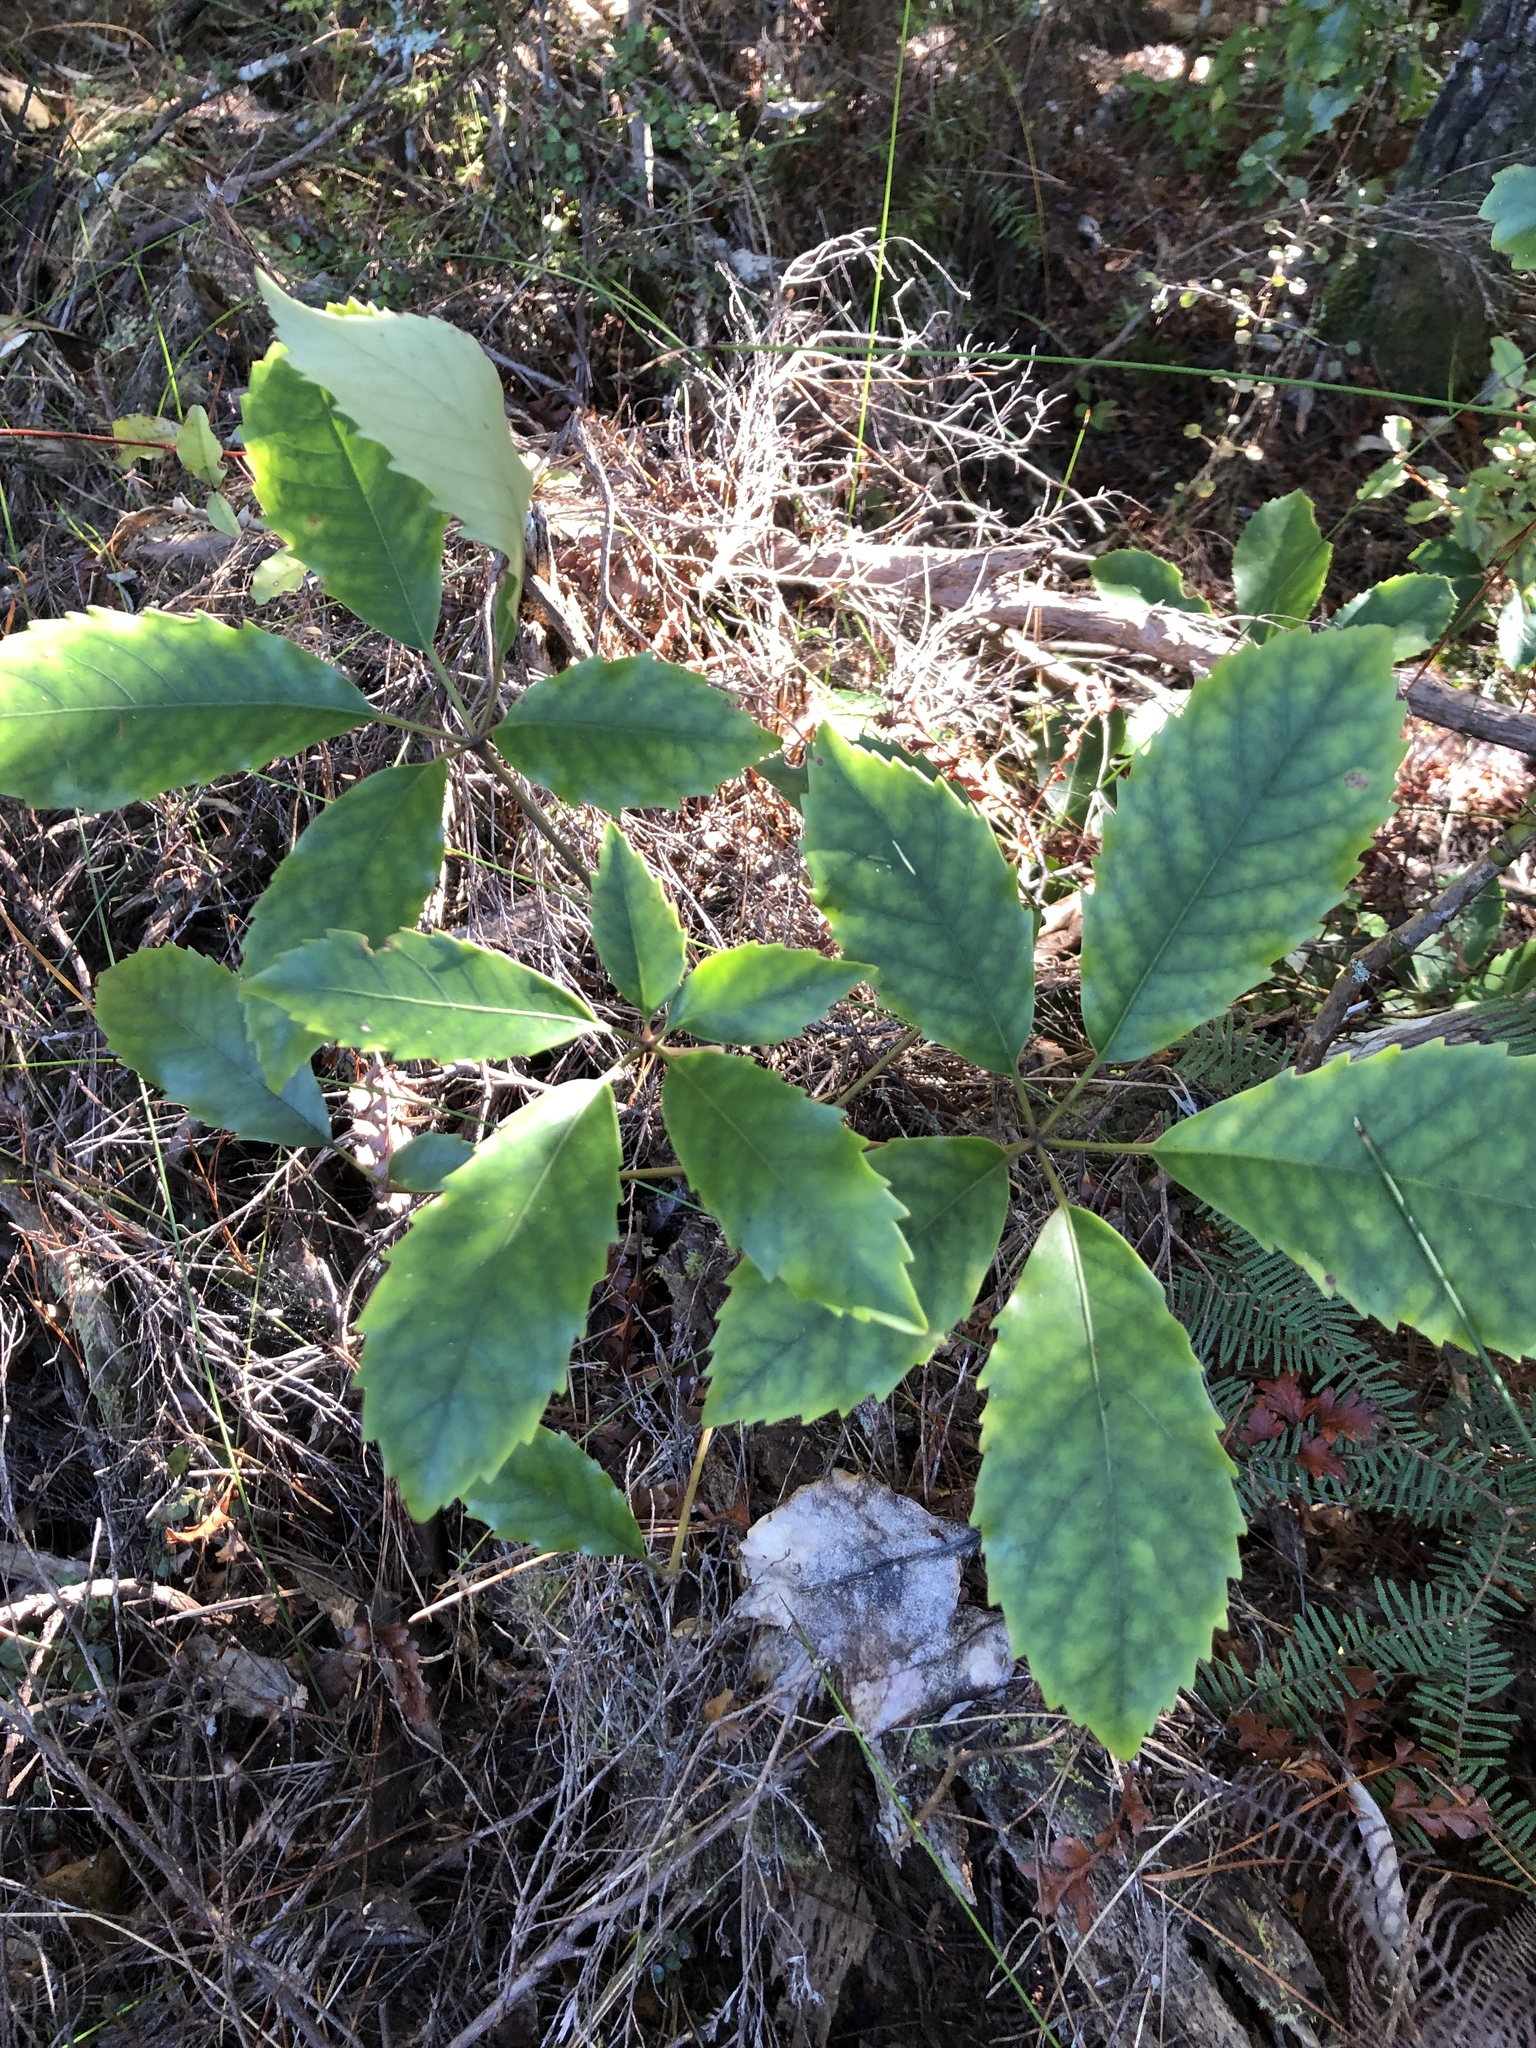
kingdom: Plantae
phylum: Tracheophyta
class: Magnoliopsida
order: Apiales
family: Araliaceae
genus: Neopanax
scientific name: Neopanax arboreus
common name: Five-fingers
